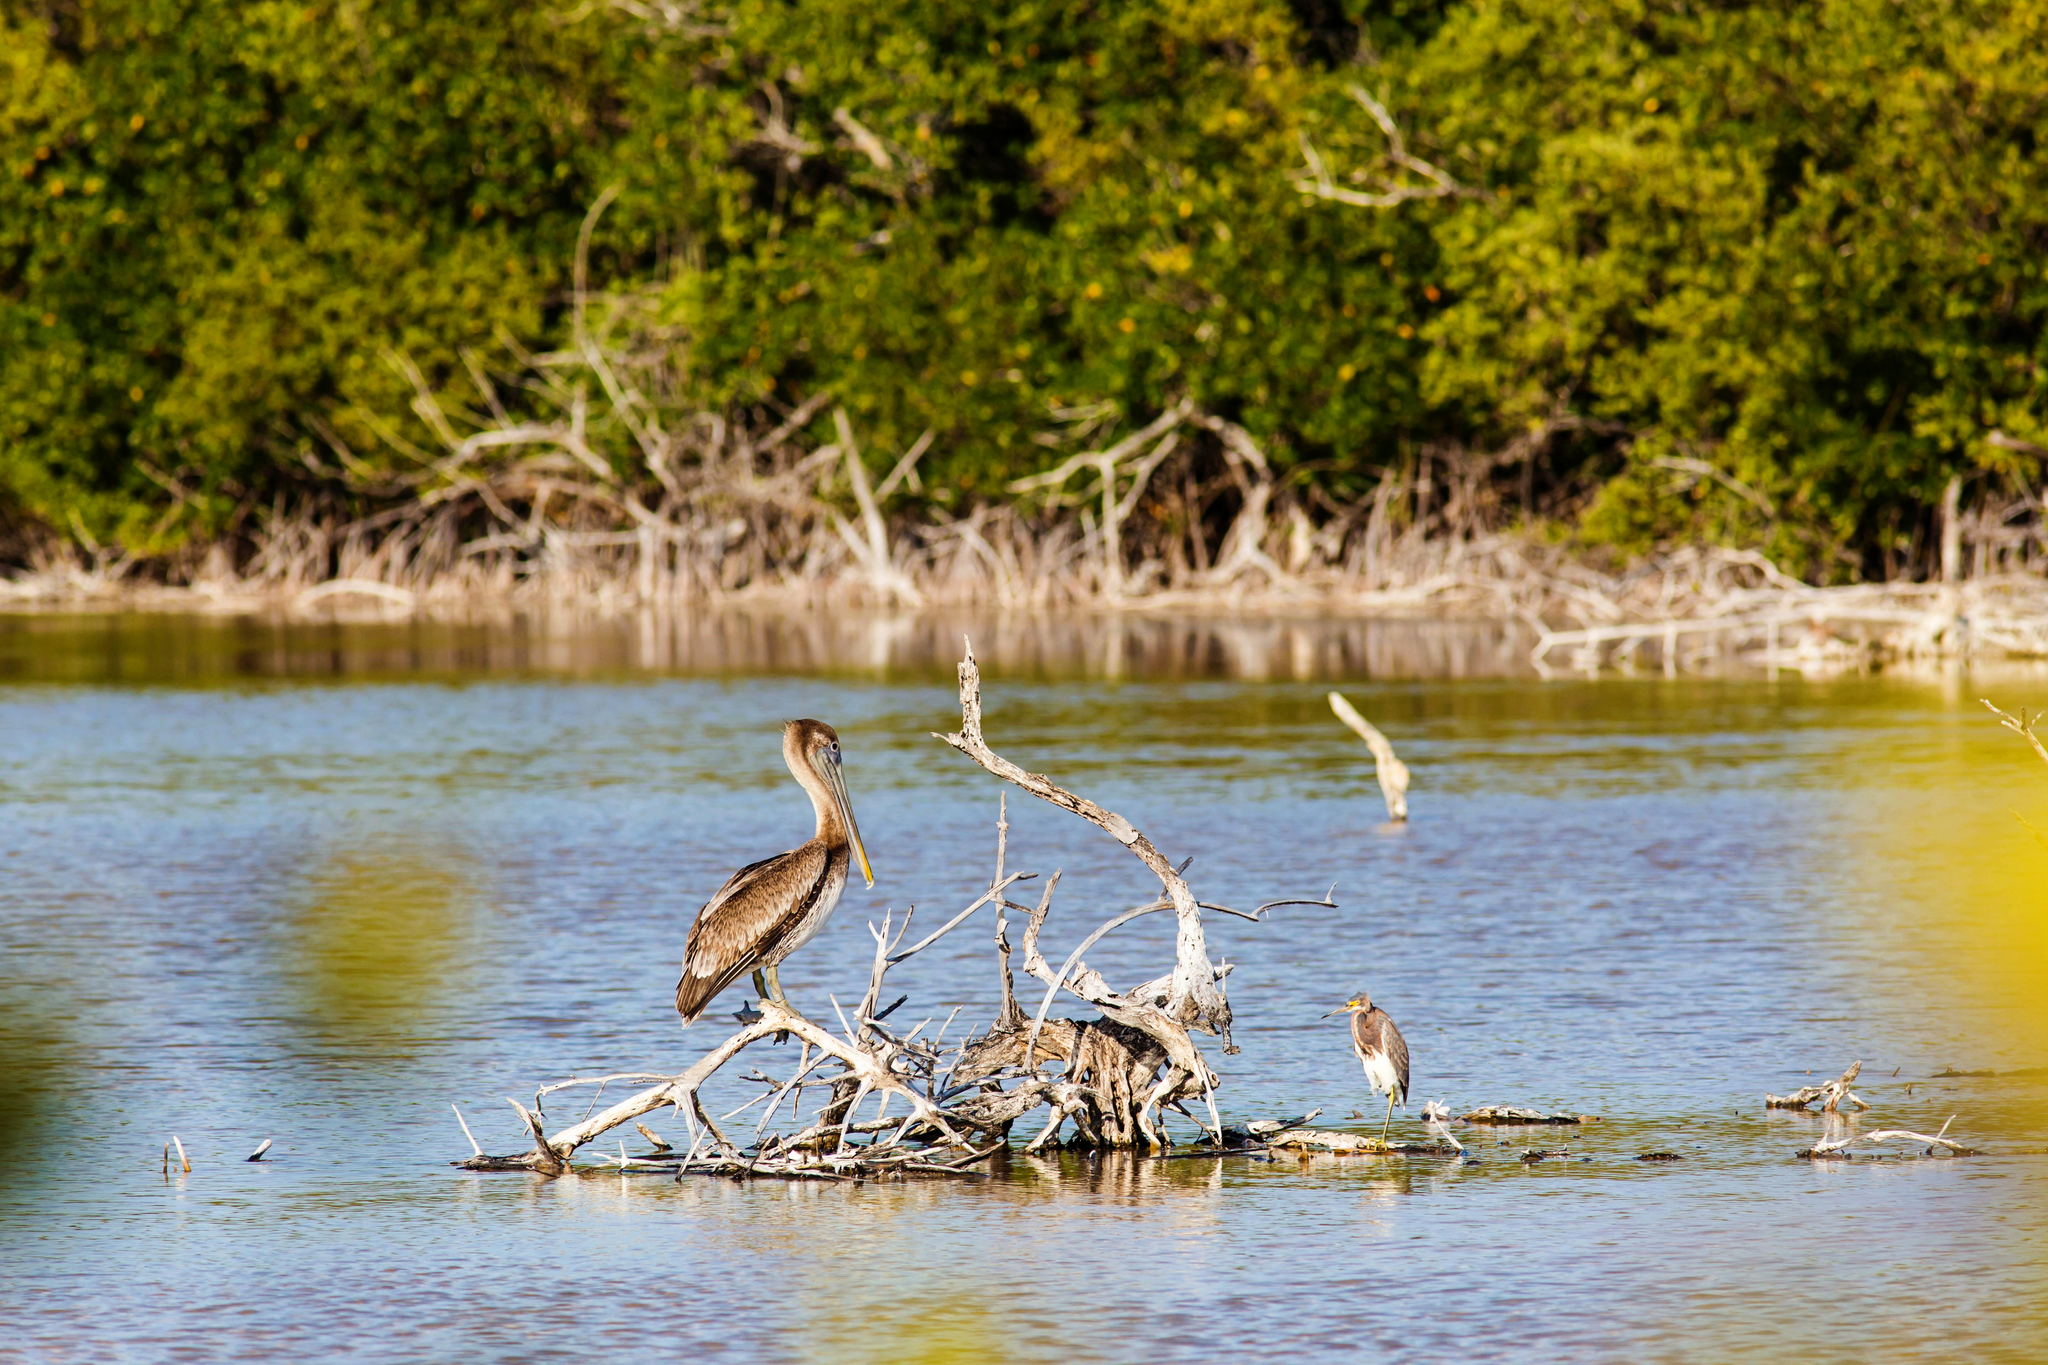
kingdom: Animalia
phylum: Chordata
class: Aves
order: Pelecaniformes
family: Pelecanidae
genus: Pelecanus
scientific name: Pelecanus occidentalis
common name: Brown pelican
